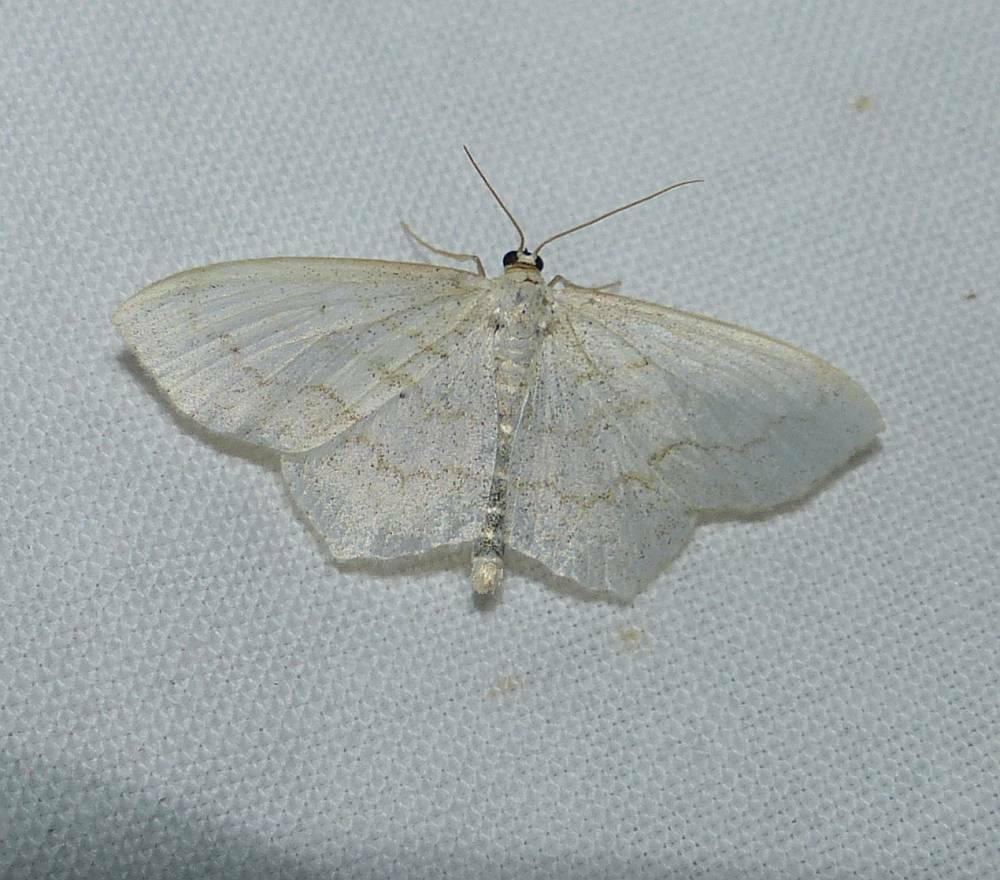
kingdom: Animalia
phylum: Arthropoda
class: Insecta
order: Lepidoptera
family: Geometridae
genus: Scopula
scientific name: Scopula limboundata
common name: Large lace border
